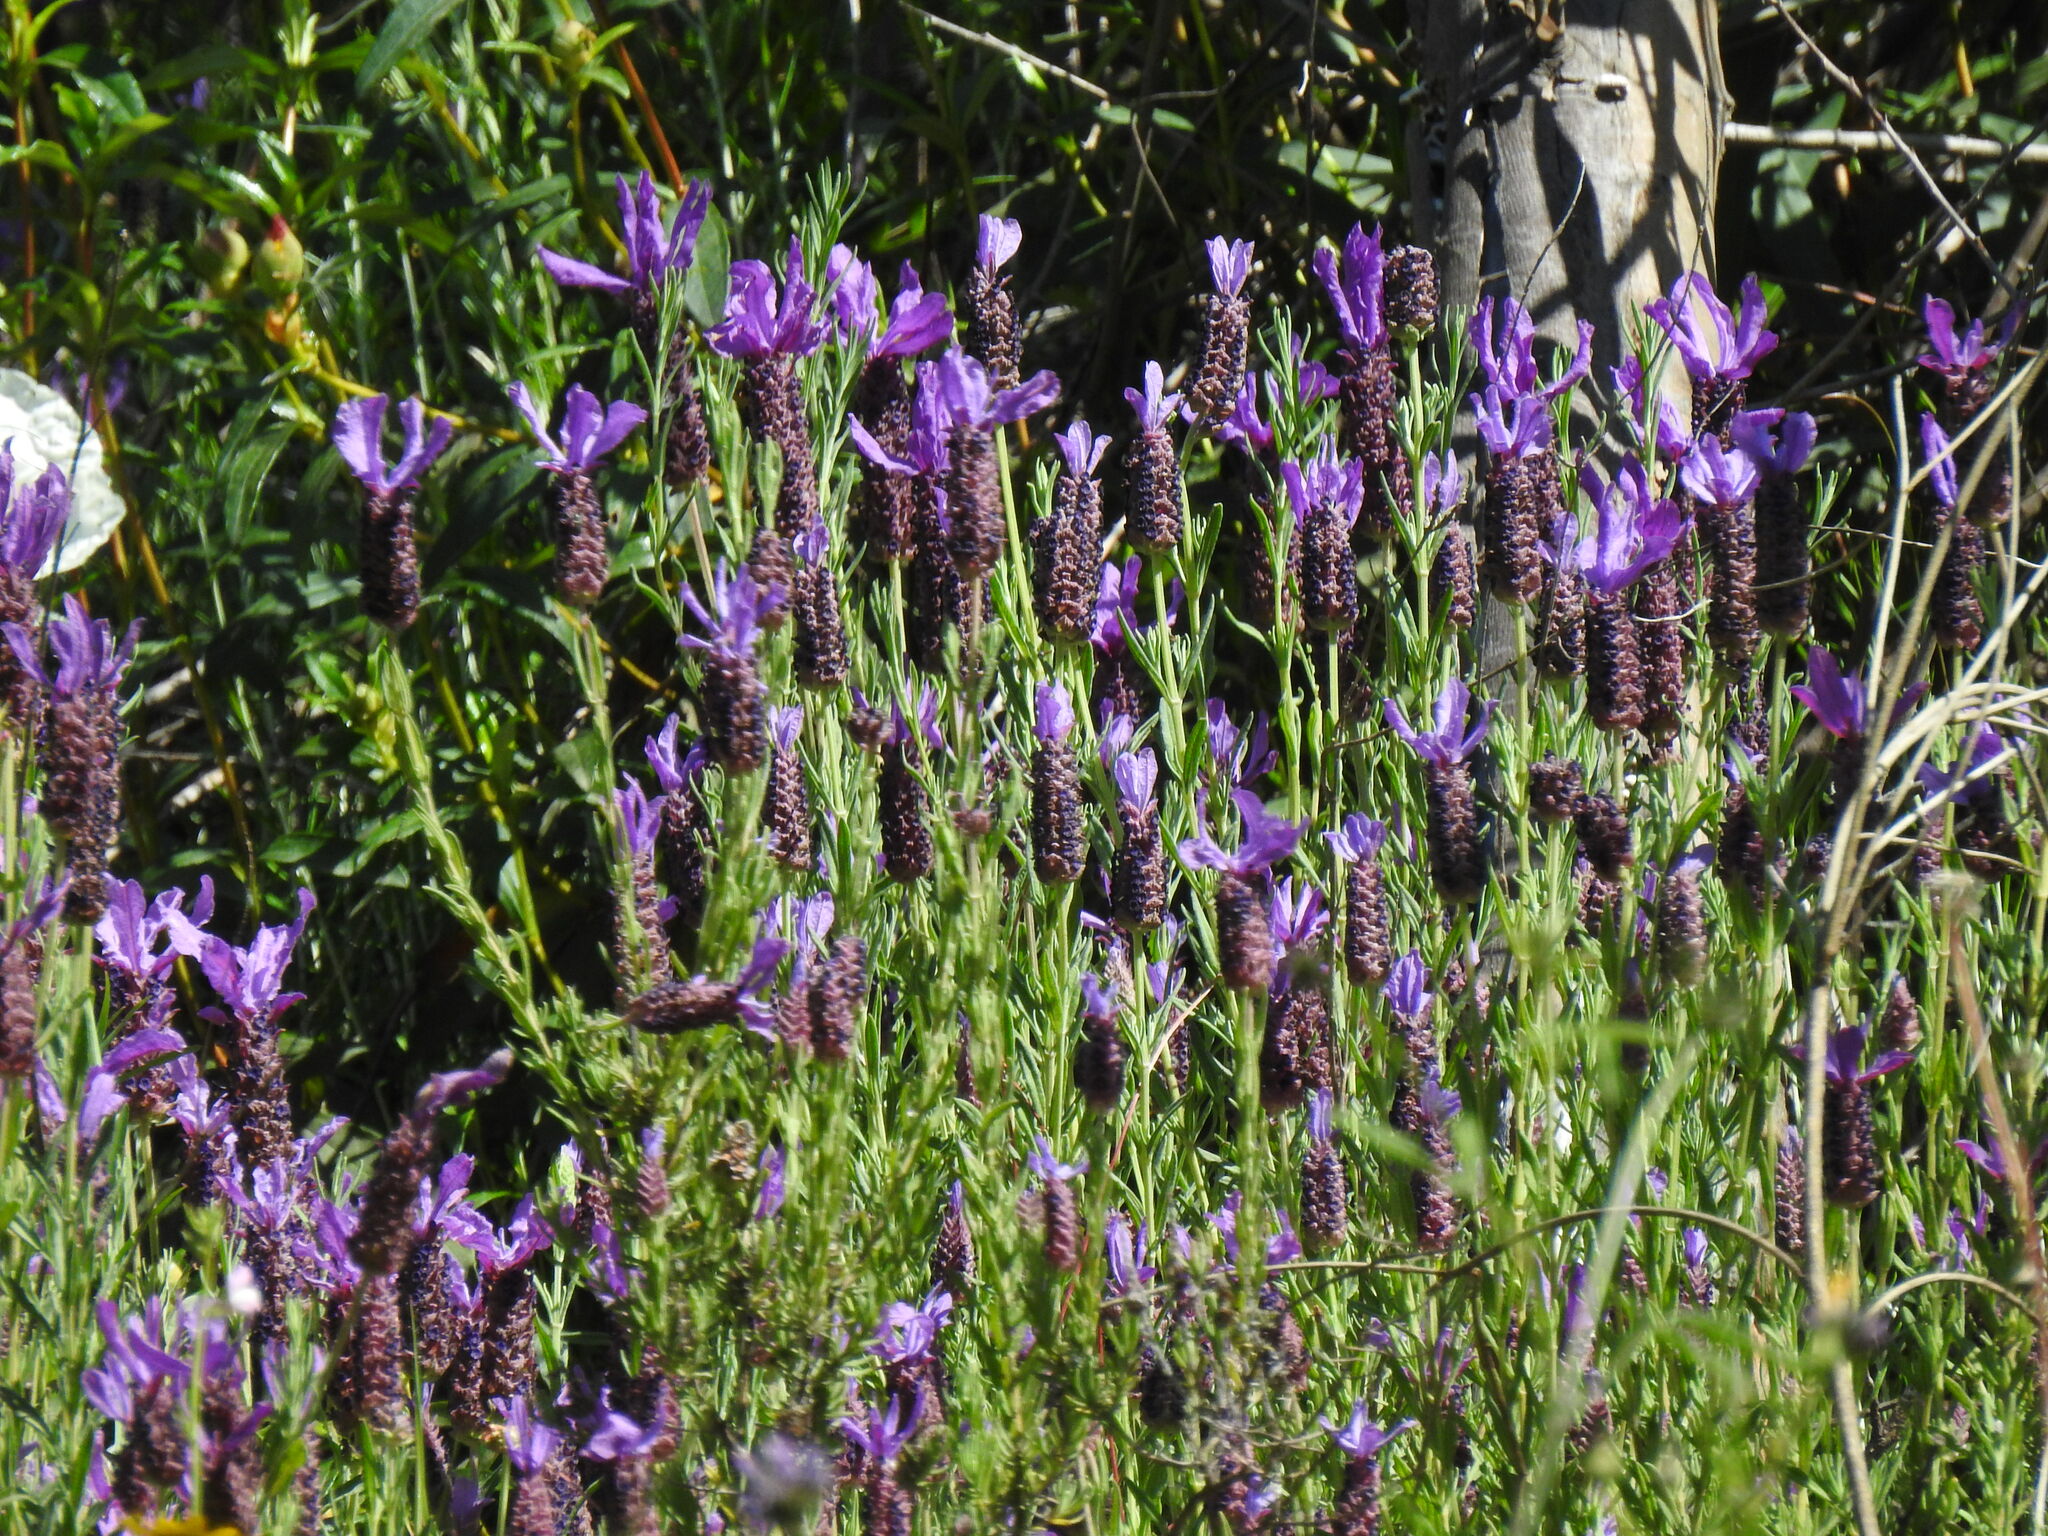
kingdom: Plantae
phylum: Tracheophyta
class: Magnoliopsida
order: Lamiales
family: Lamiaceae
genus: Lavandula
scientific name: Lavandula stoechas
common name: French lavender
